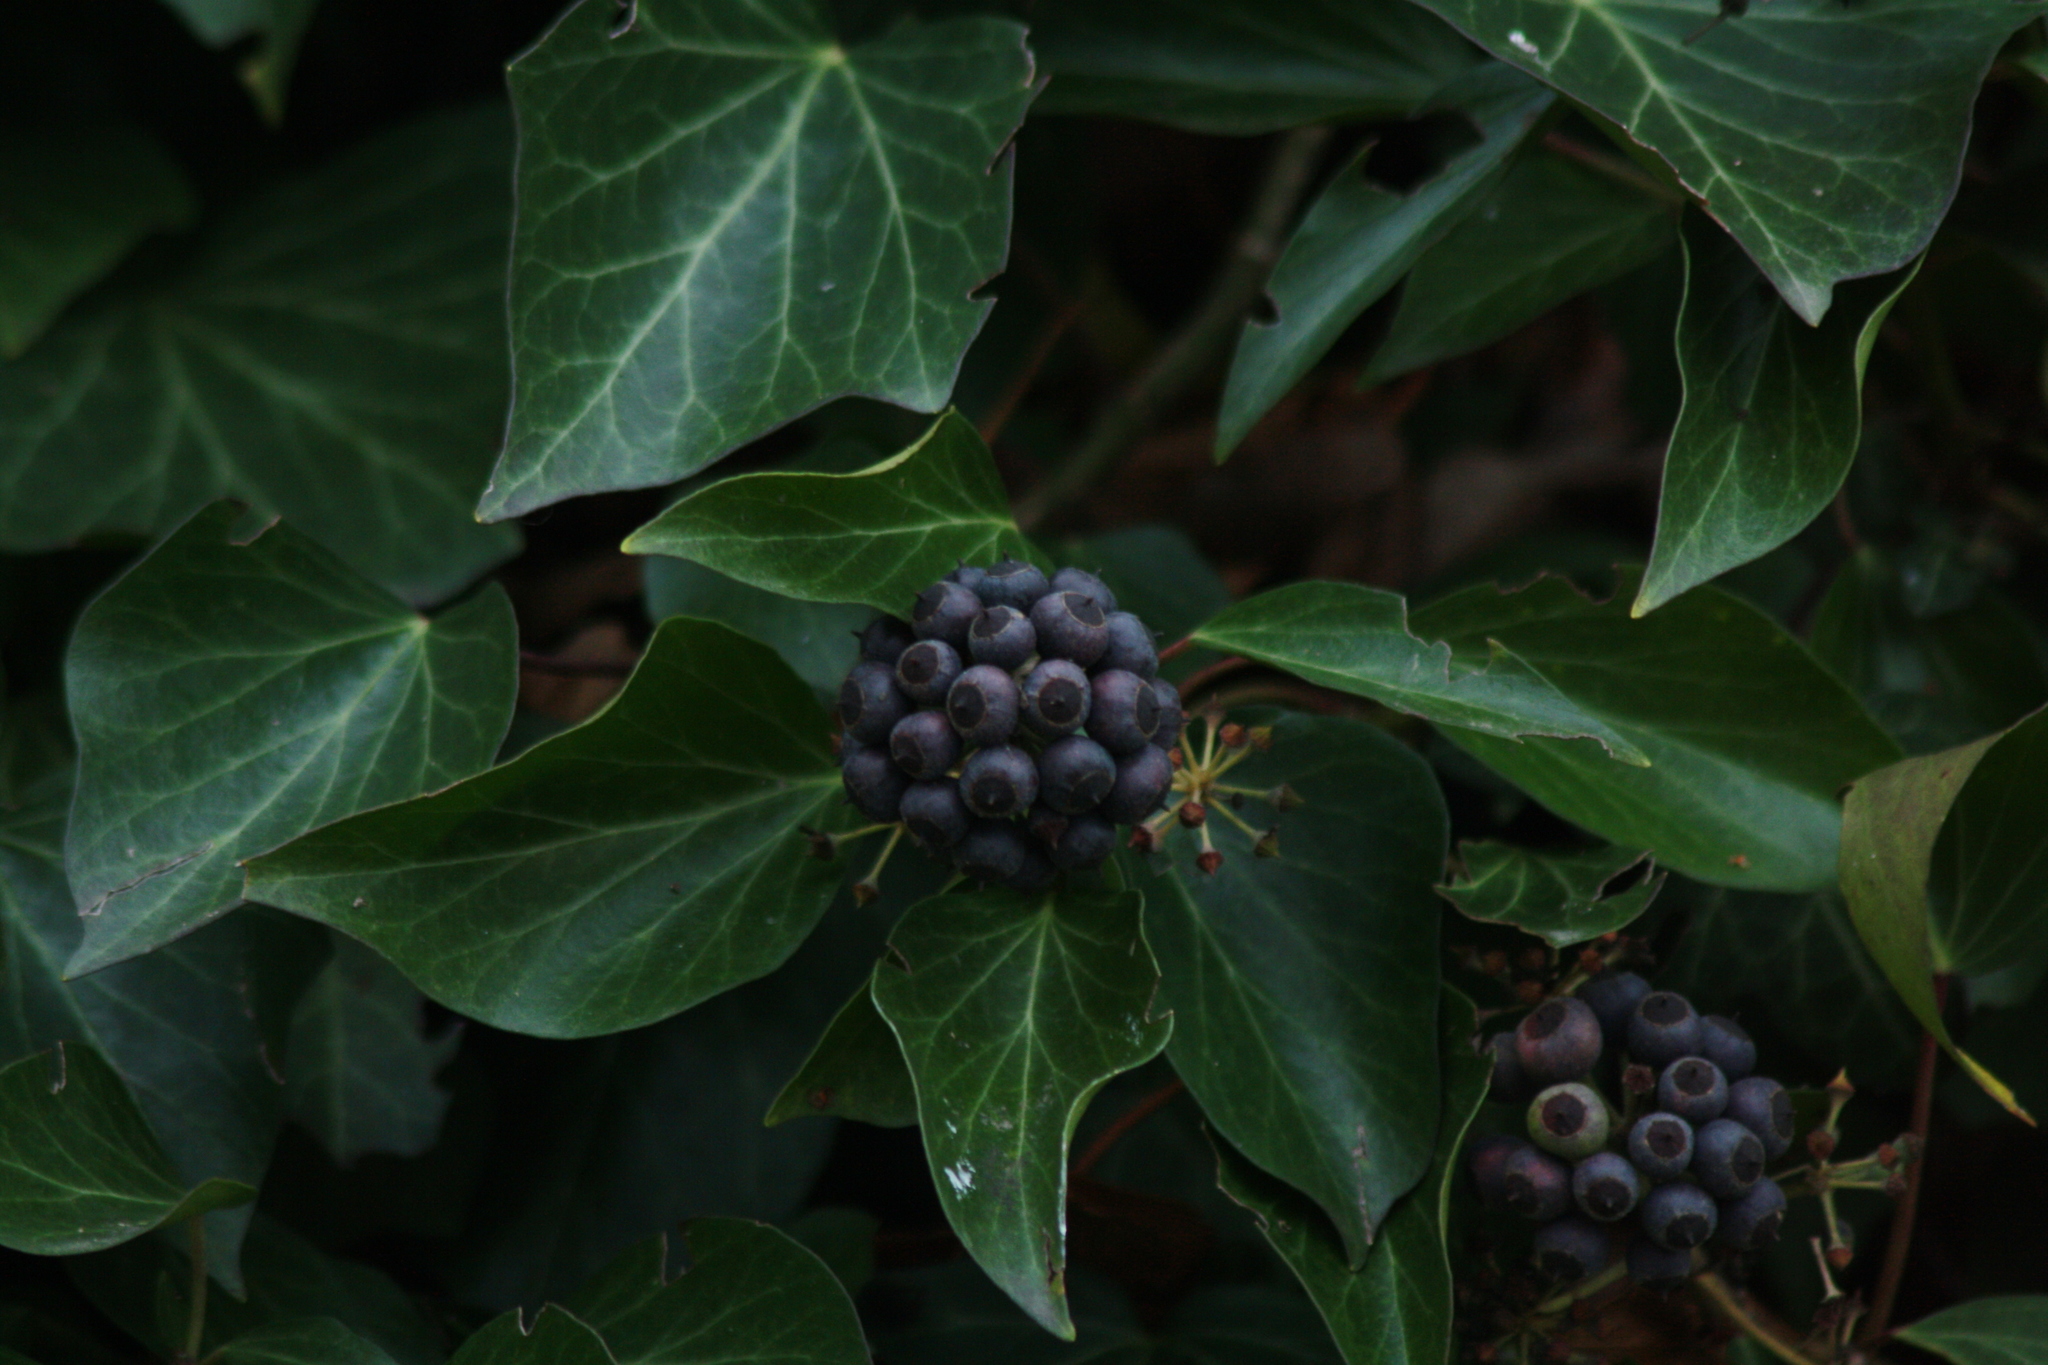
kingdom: Plantae
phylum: Tracheophyta
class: Magnoliopsida
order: Apiales
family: Araliaceae
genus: Hedera
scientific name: Hedera helix
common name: Ivy
